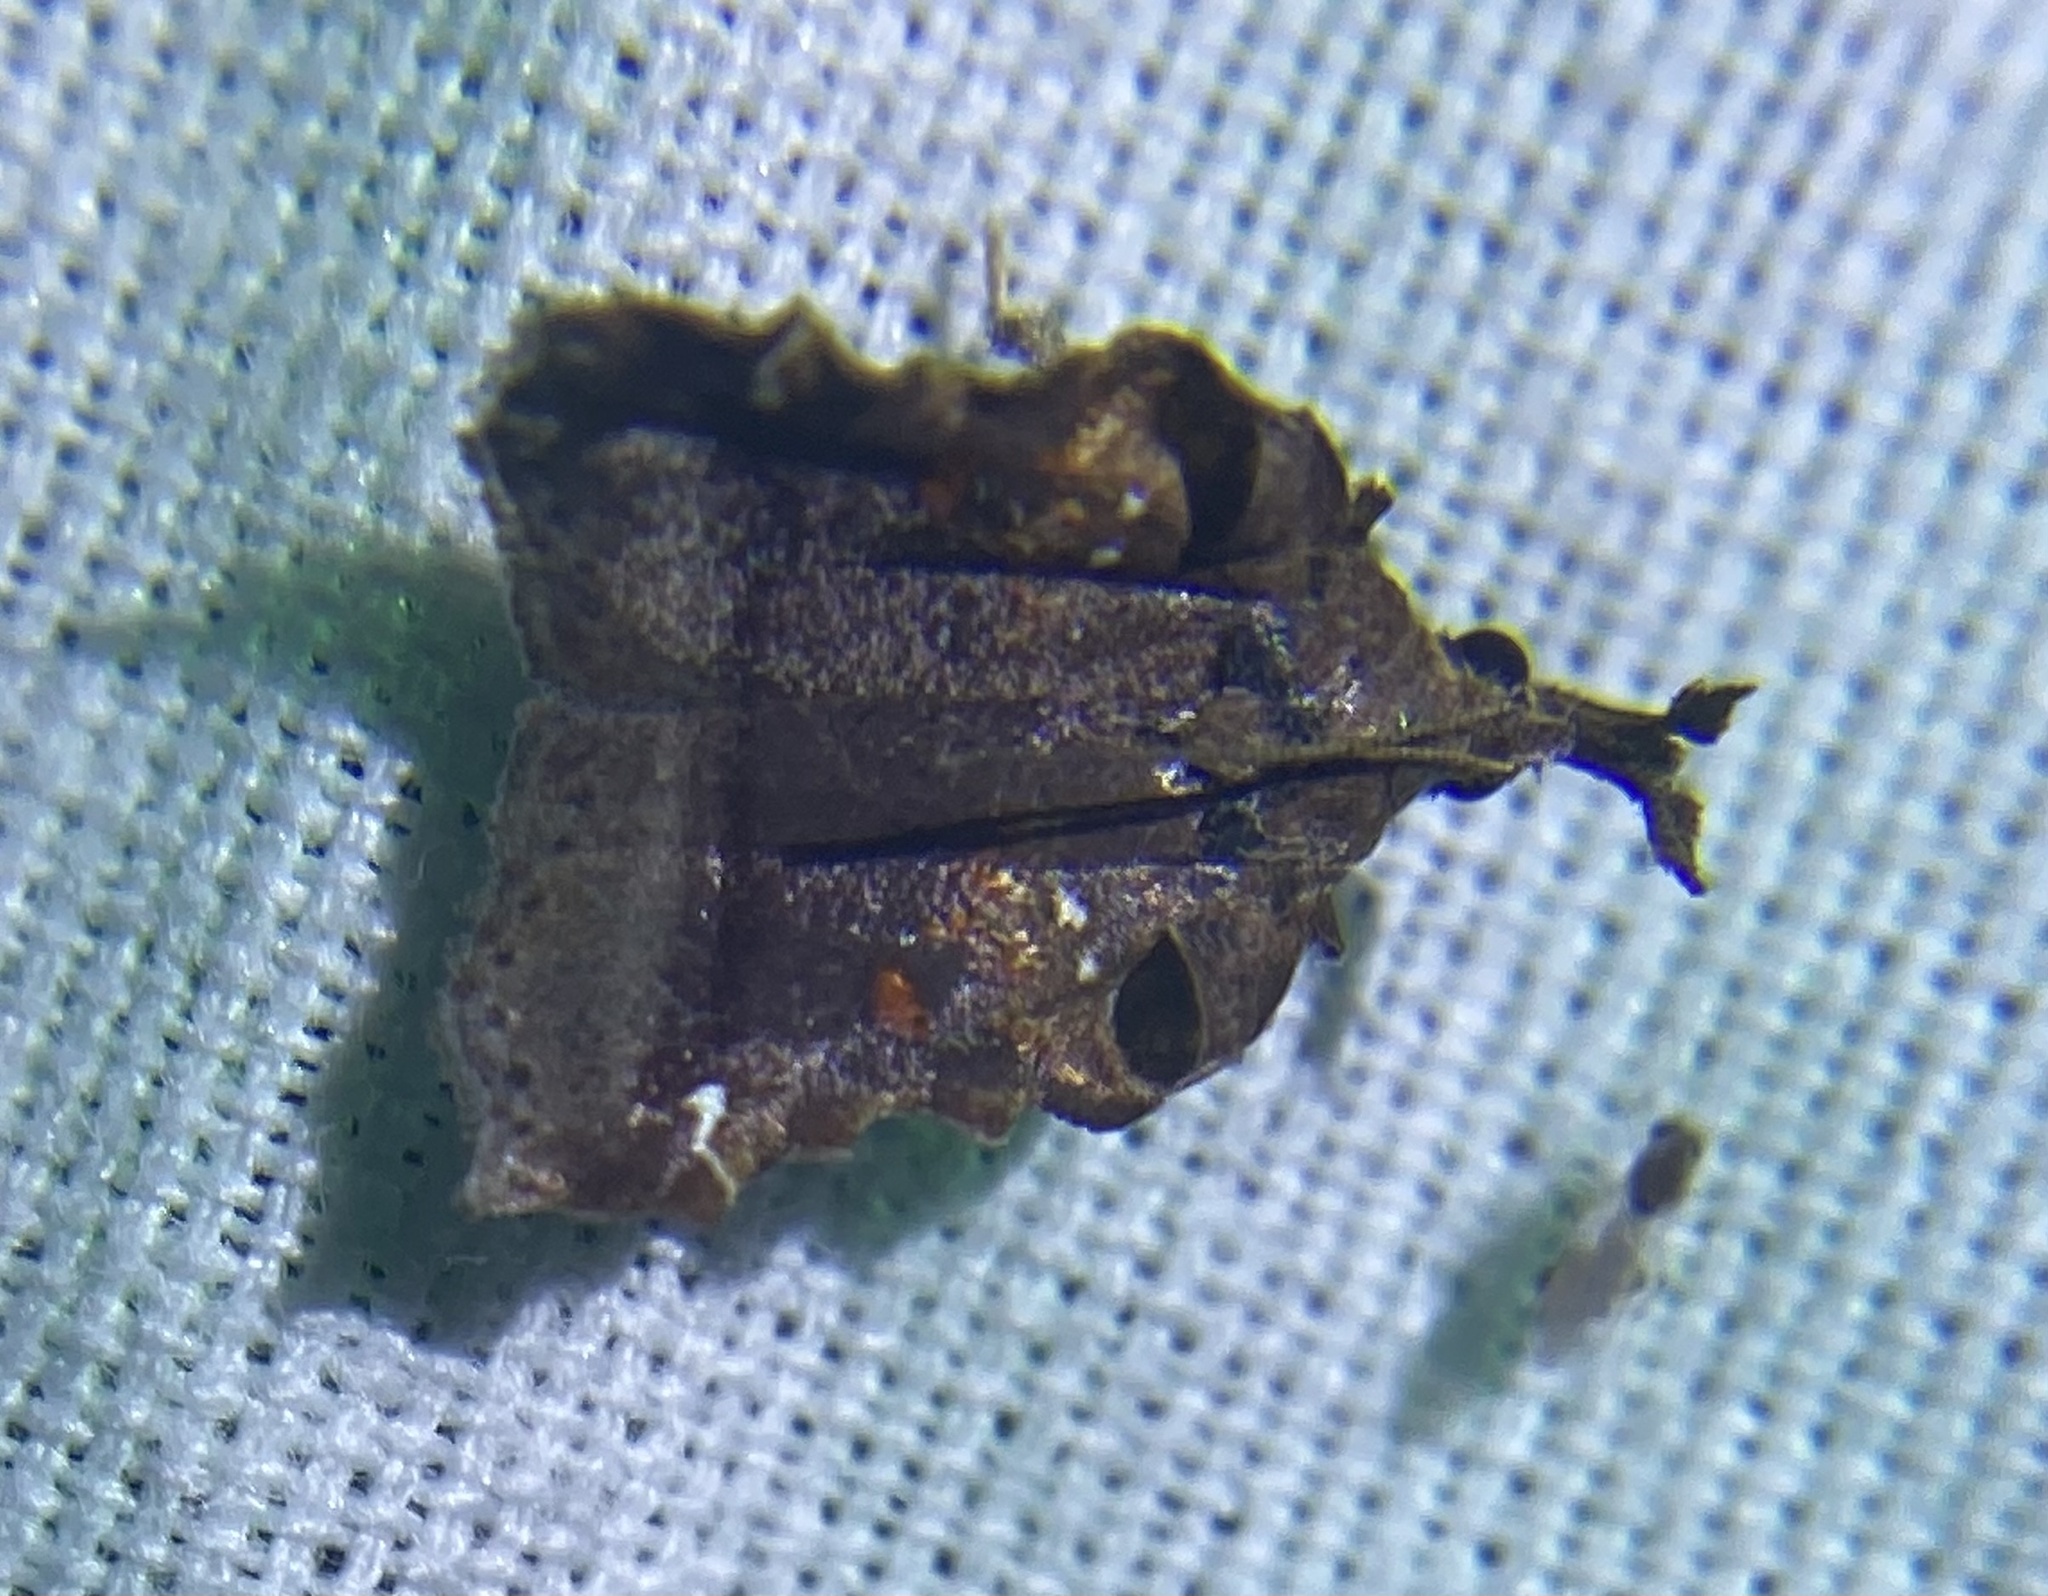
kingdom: Animalia
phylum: Arthropoda
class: Insecta
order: Lepidoptera
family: Pyralidae
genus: Clydonopteron
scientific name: Clydonopteron sacculana
